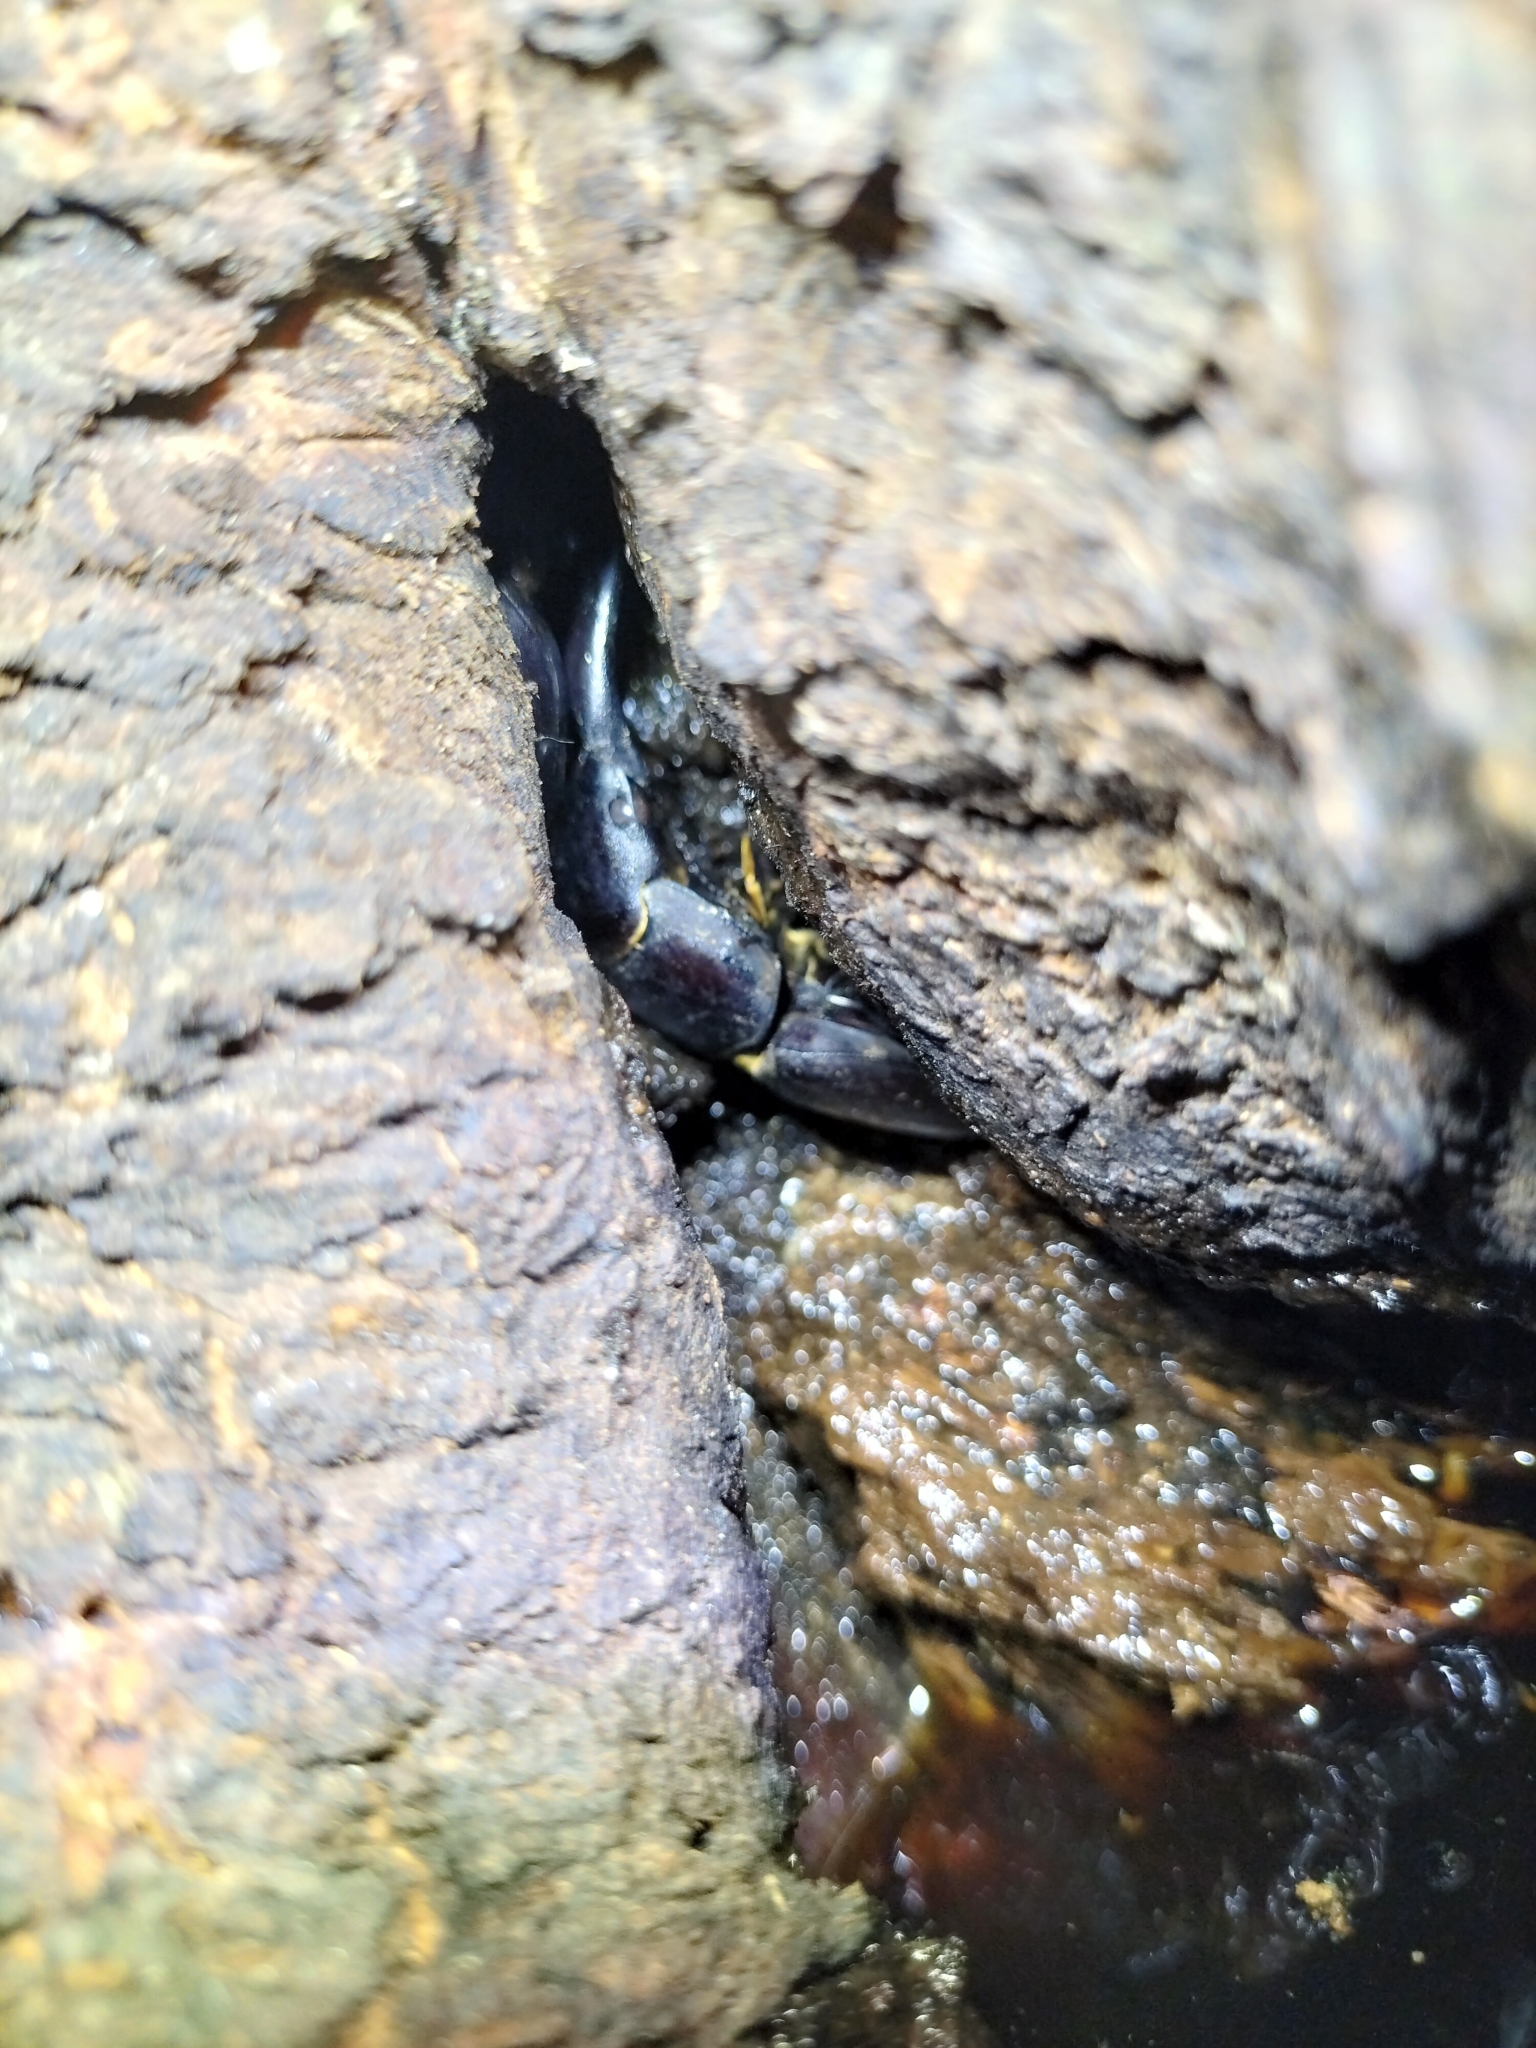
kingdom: Animalia
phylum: Arthropoda
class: Insecta
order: Coleoptera
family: Lucanidae
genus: Serrognathus
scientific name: Serrognathus titanus
